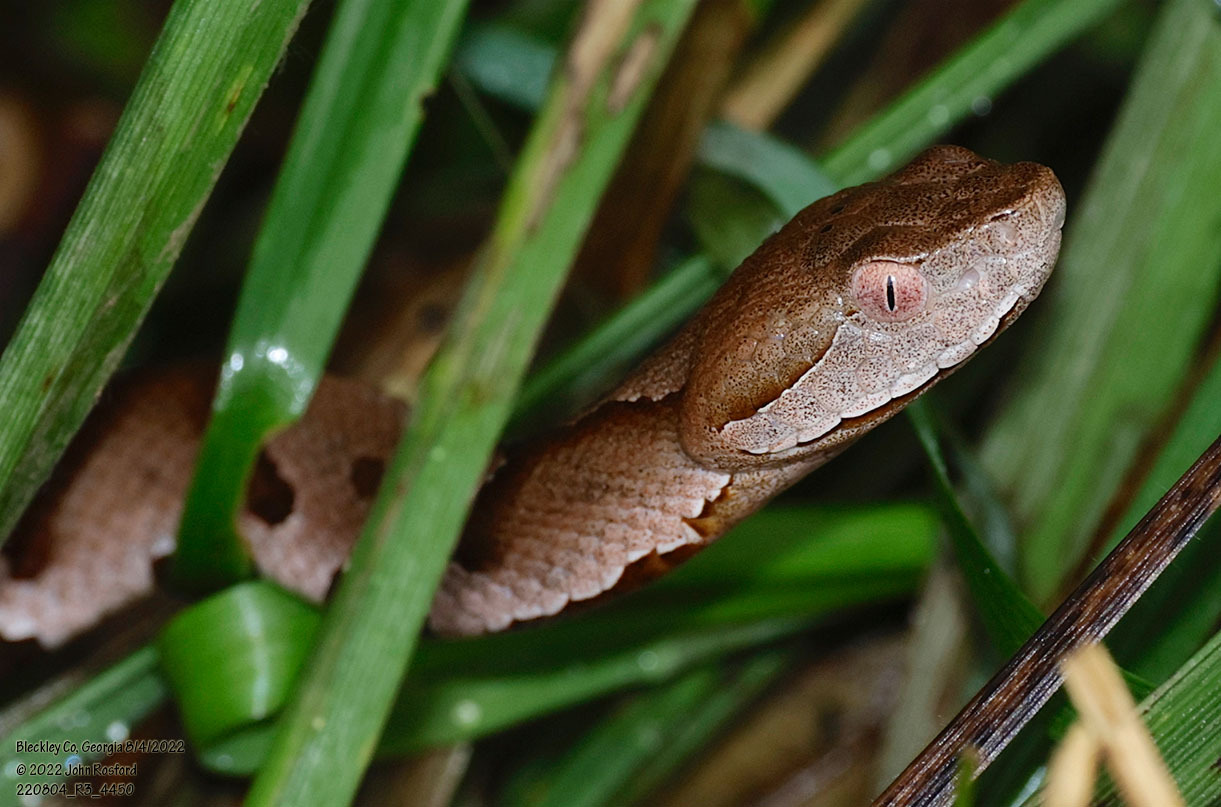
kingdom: Animalia
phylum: Chordata
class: Squamata
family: Viperidae
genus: Agkistrodon
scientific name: Agkistrodon contortrix
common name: Northern copperhead
